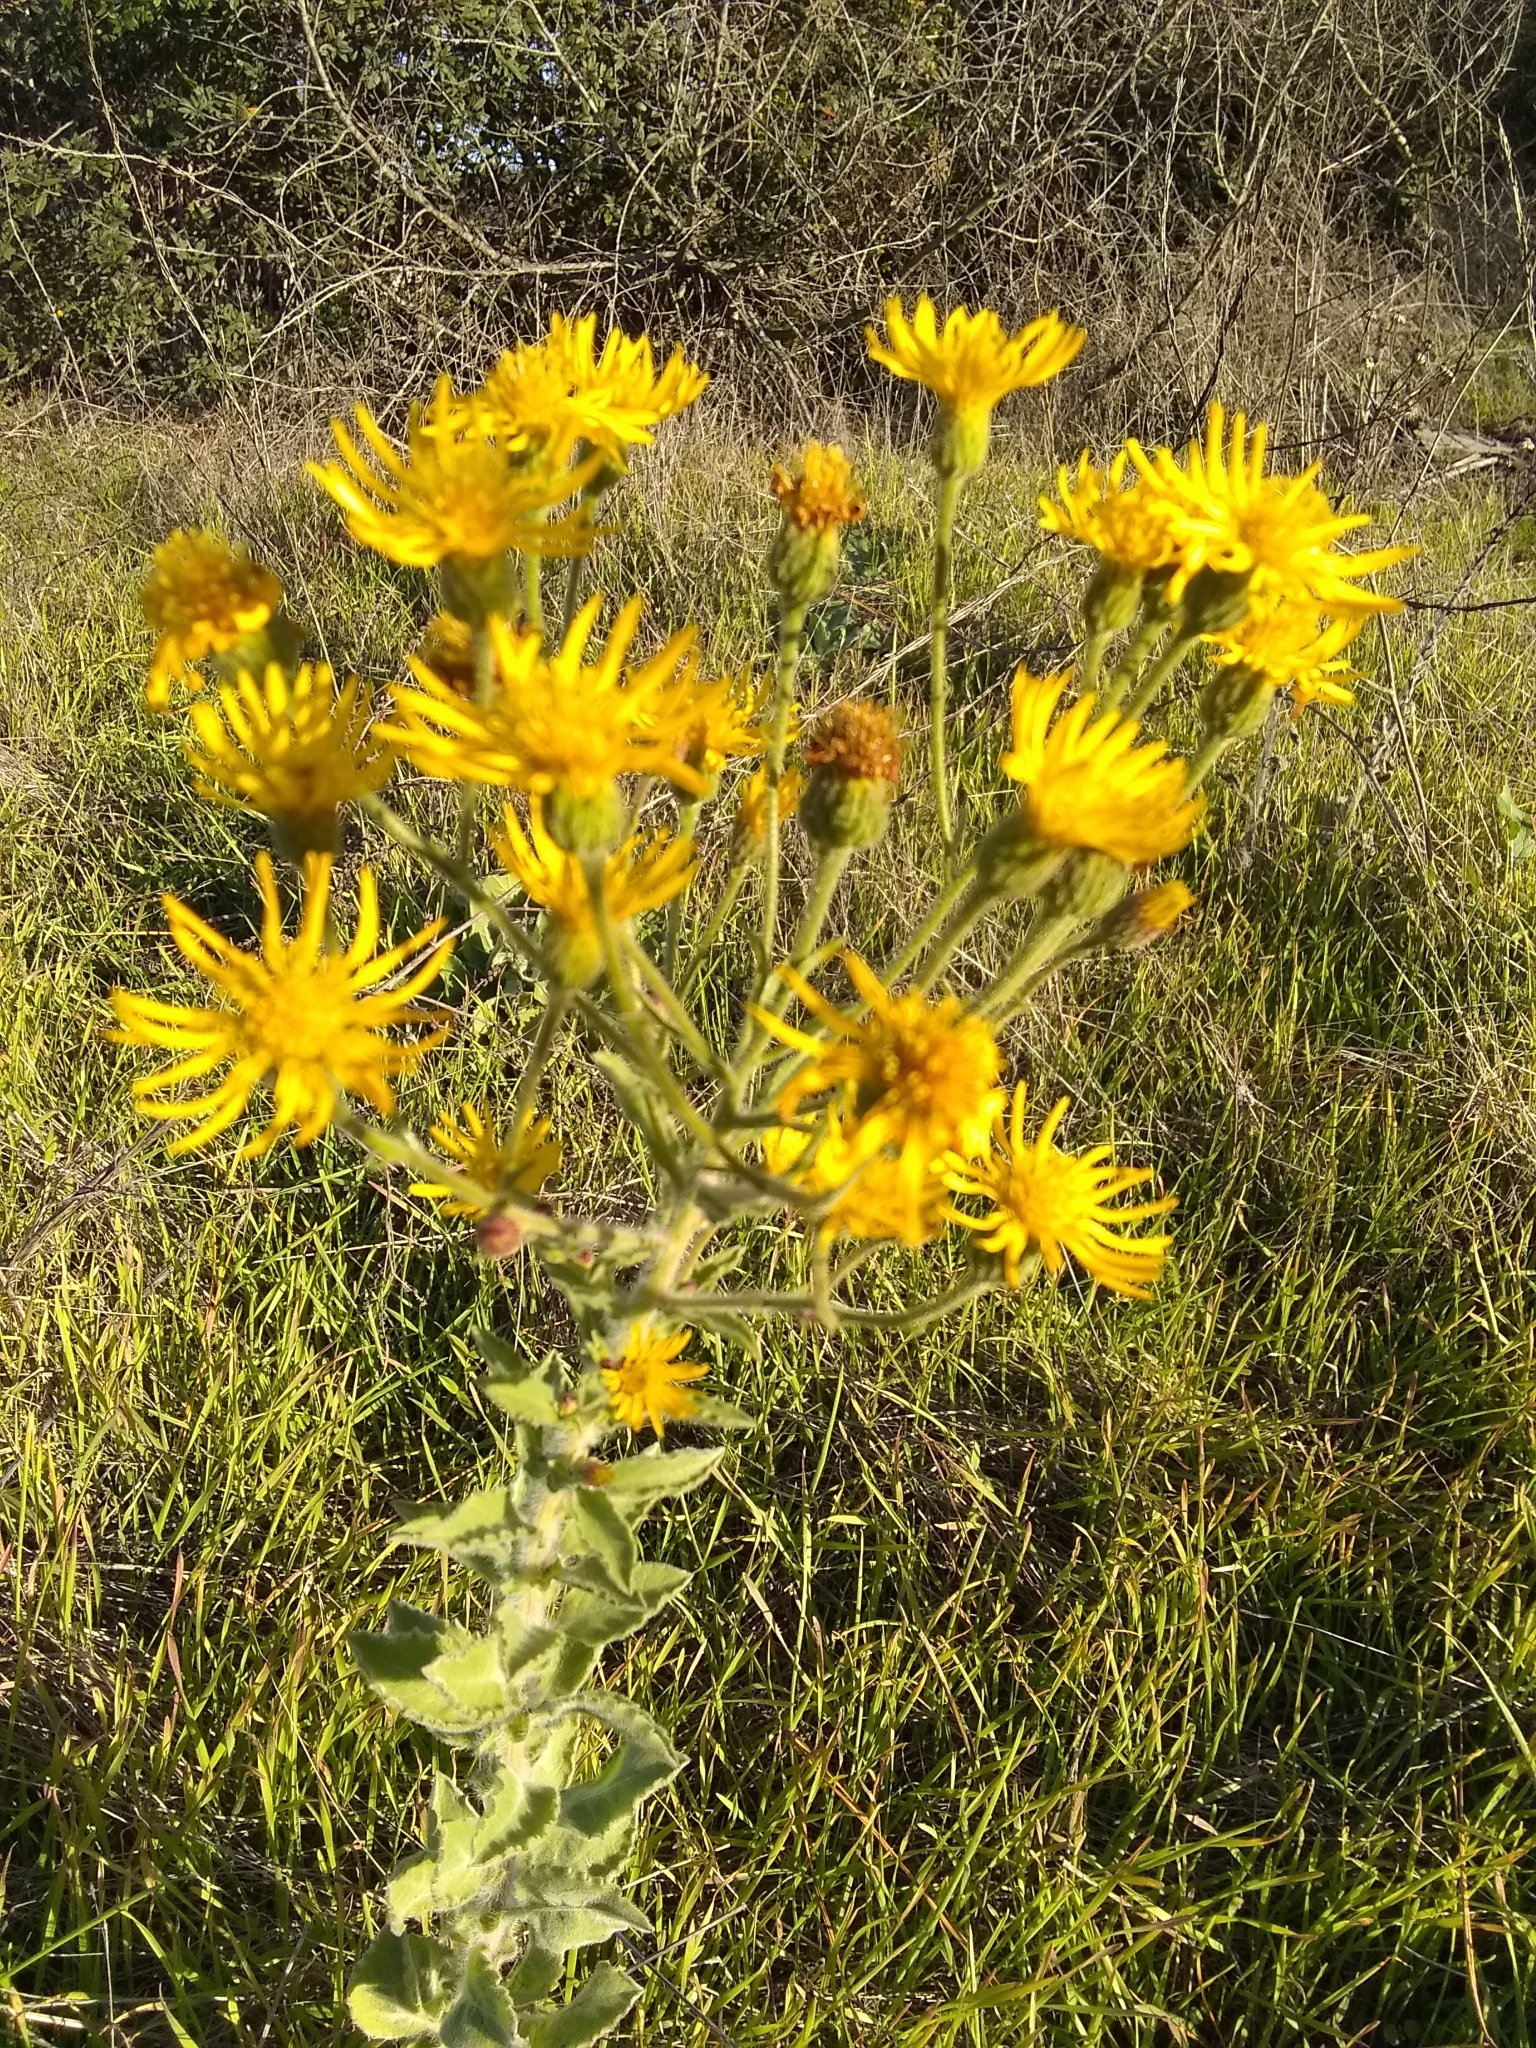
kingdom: Plantae
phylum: Tracheophyta
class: Magnoliopsida
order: Asterales
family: Asteraceae
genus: Heterotheca
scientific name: Heterotheca grandiflora
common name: Telegraphweed
